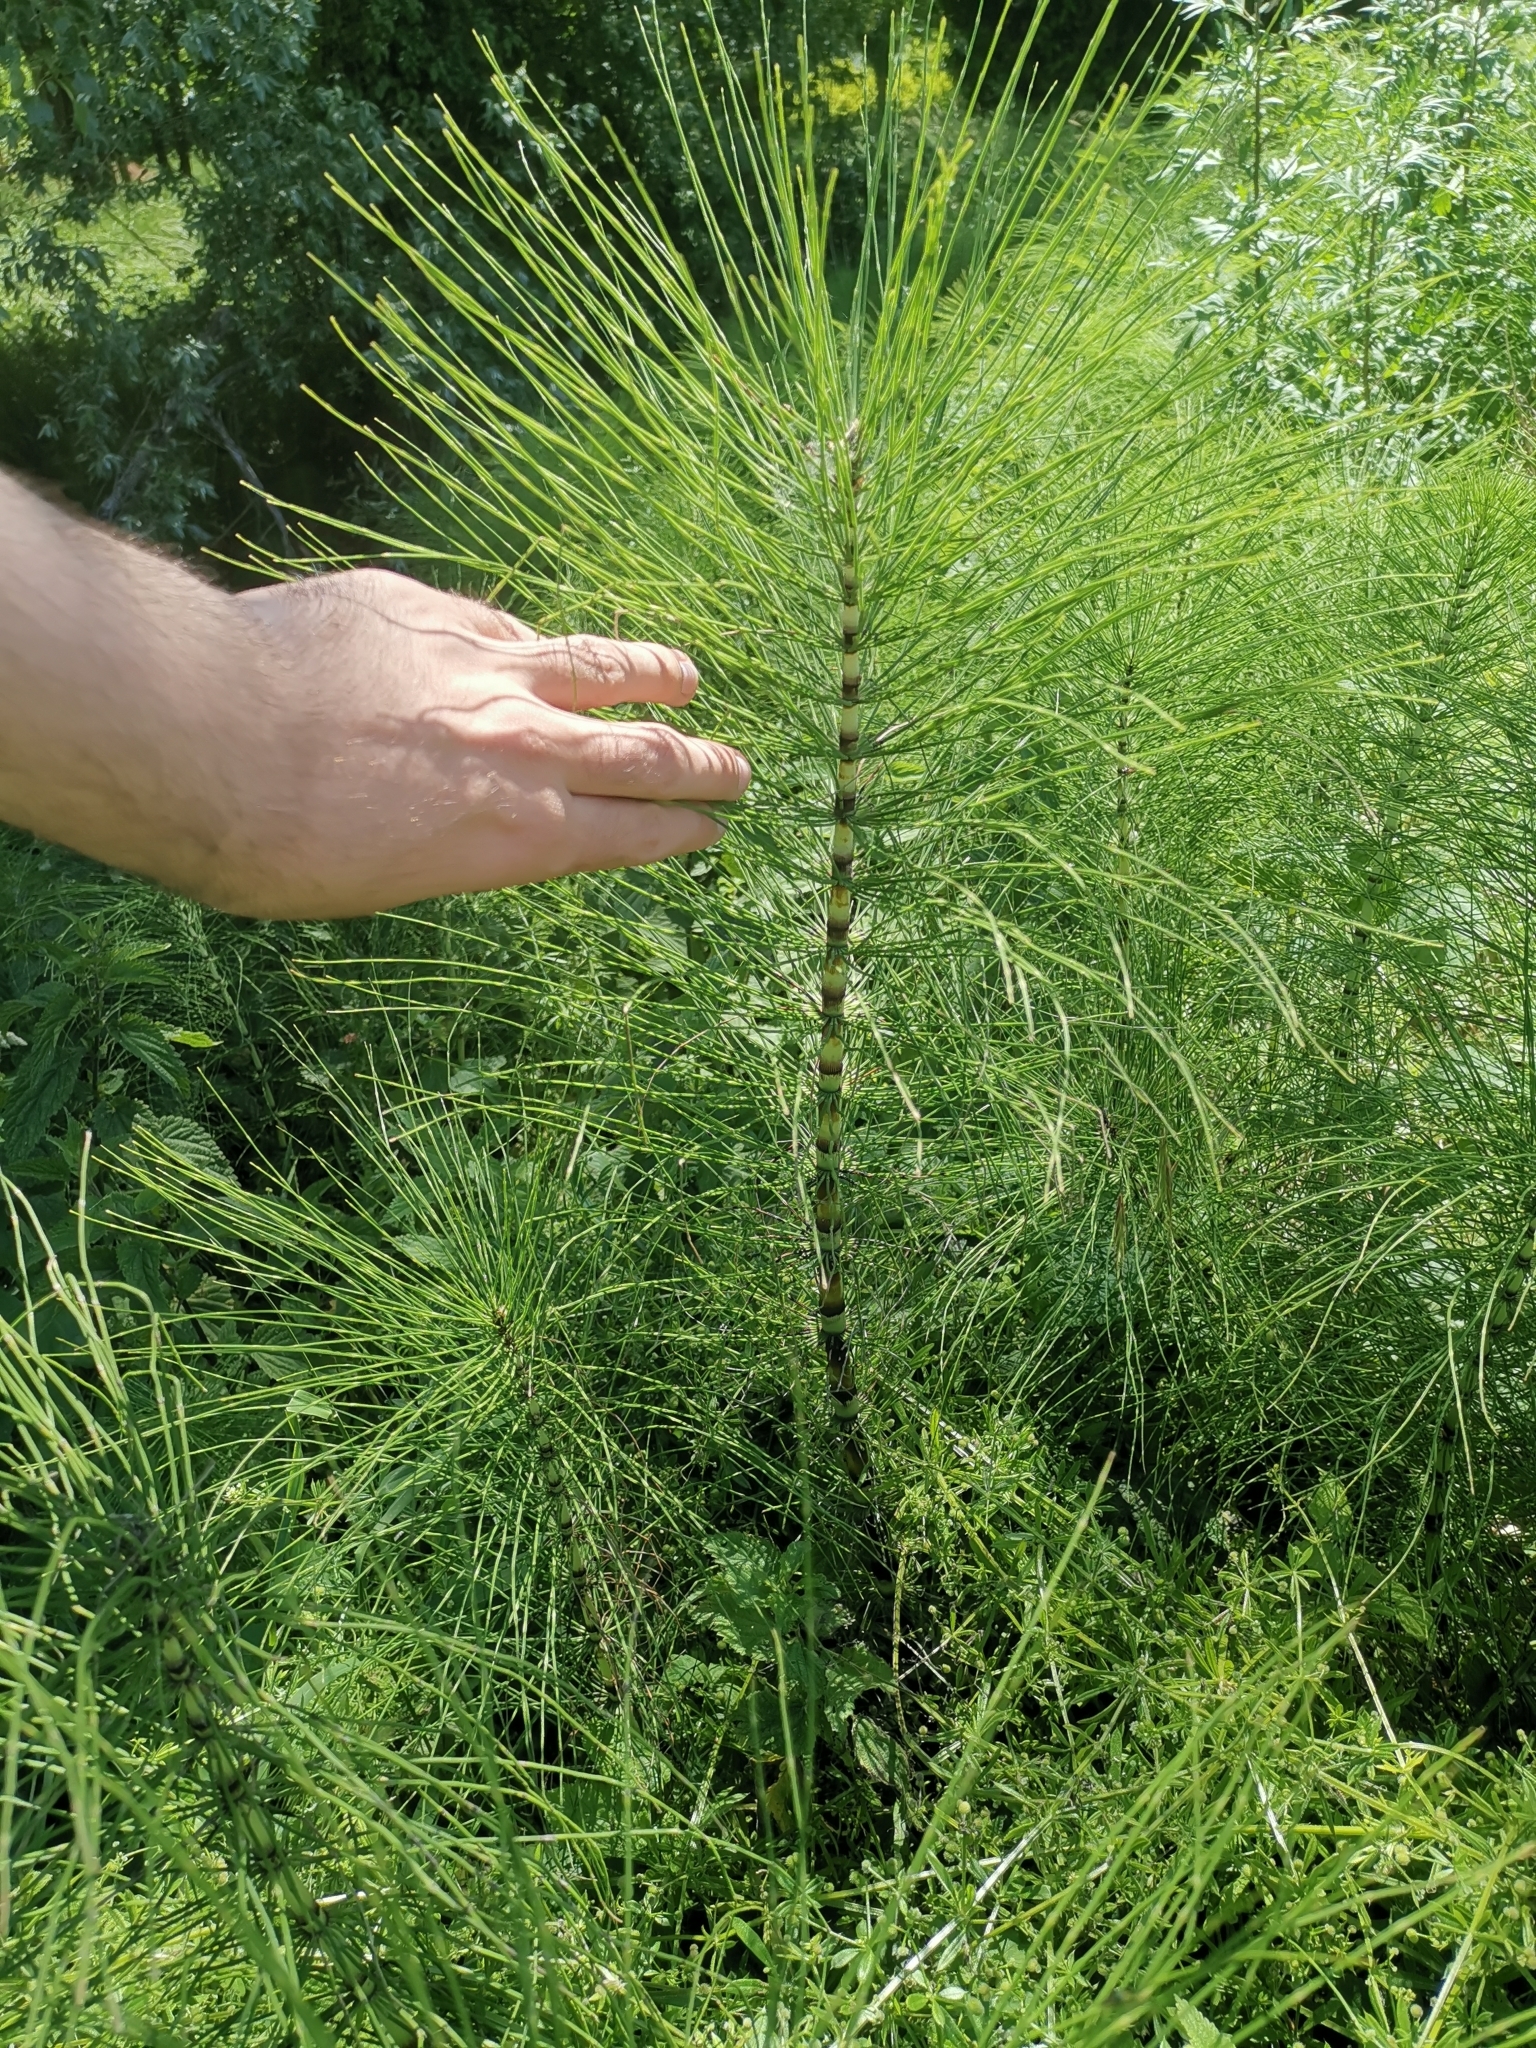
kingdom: Plantae
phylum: Tracheophyta
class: Polypodiopsida
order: Equisetales
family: Equisetaceae
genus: Equisetum
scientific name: Equisetum telmateia
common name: Great horsetail
